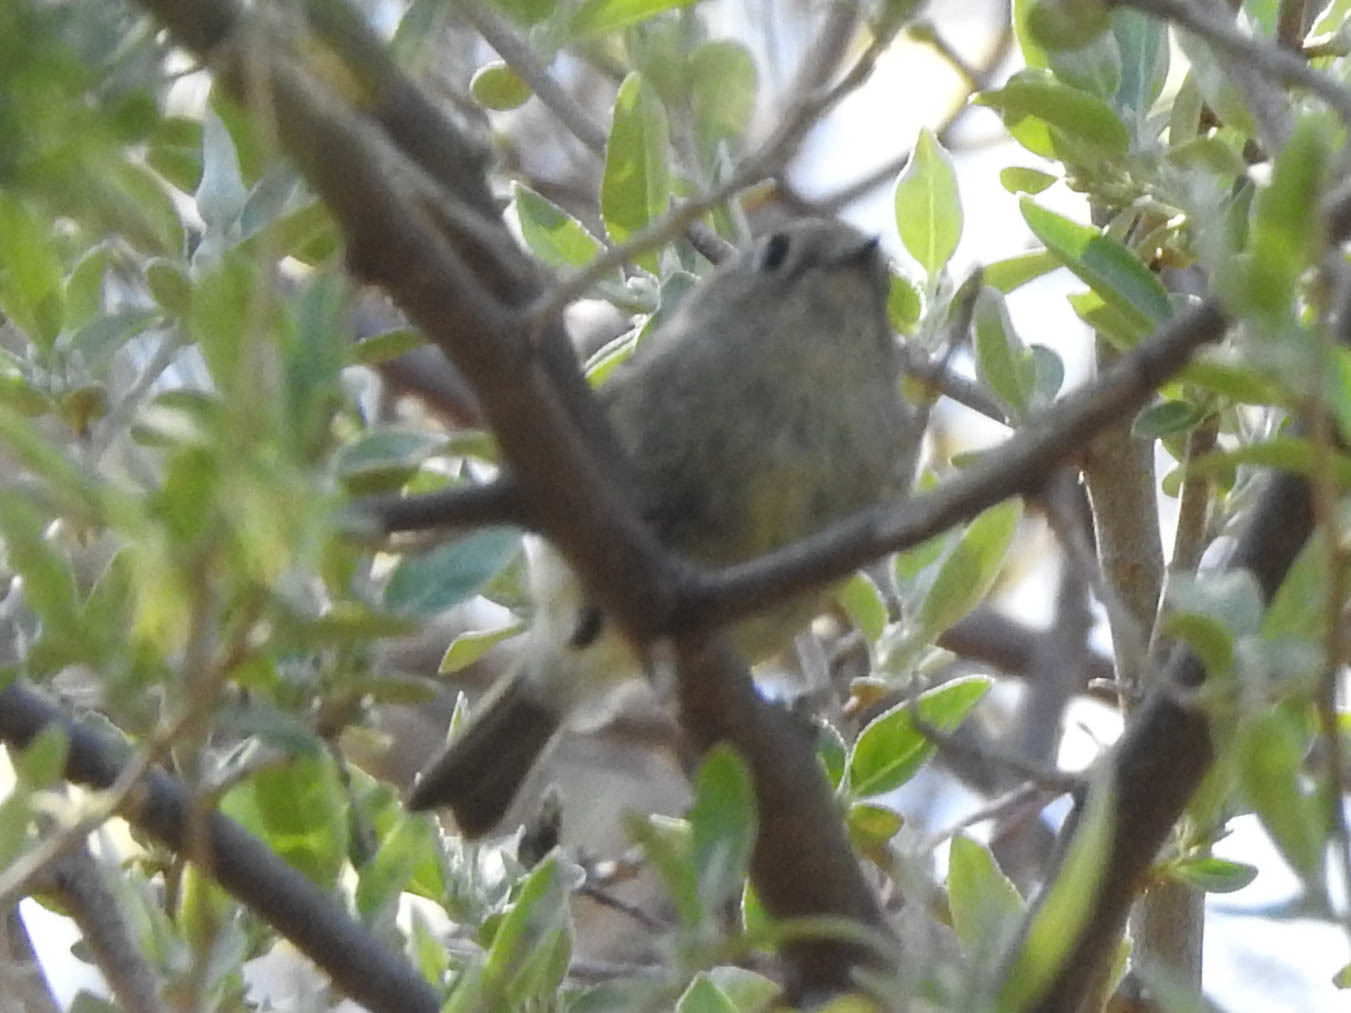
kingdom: Animalia
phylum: Chordata
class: Aves
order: Passeriformes
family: Regulidae
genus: Regulus
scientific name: Regulus calendula
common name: Ruby-crowned kinglet
